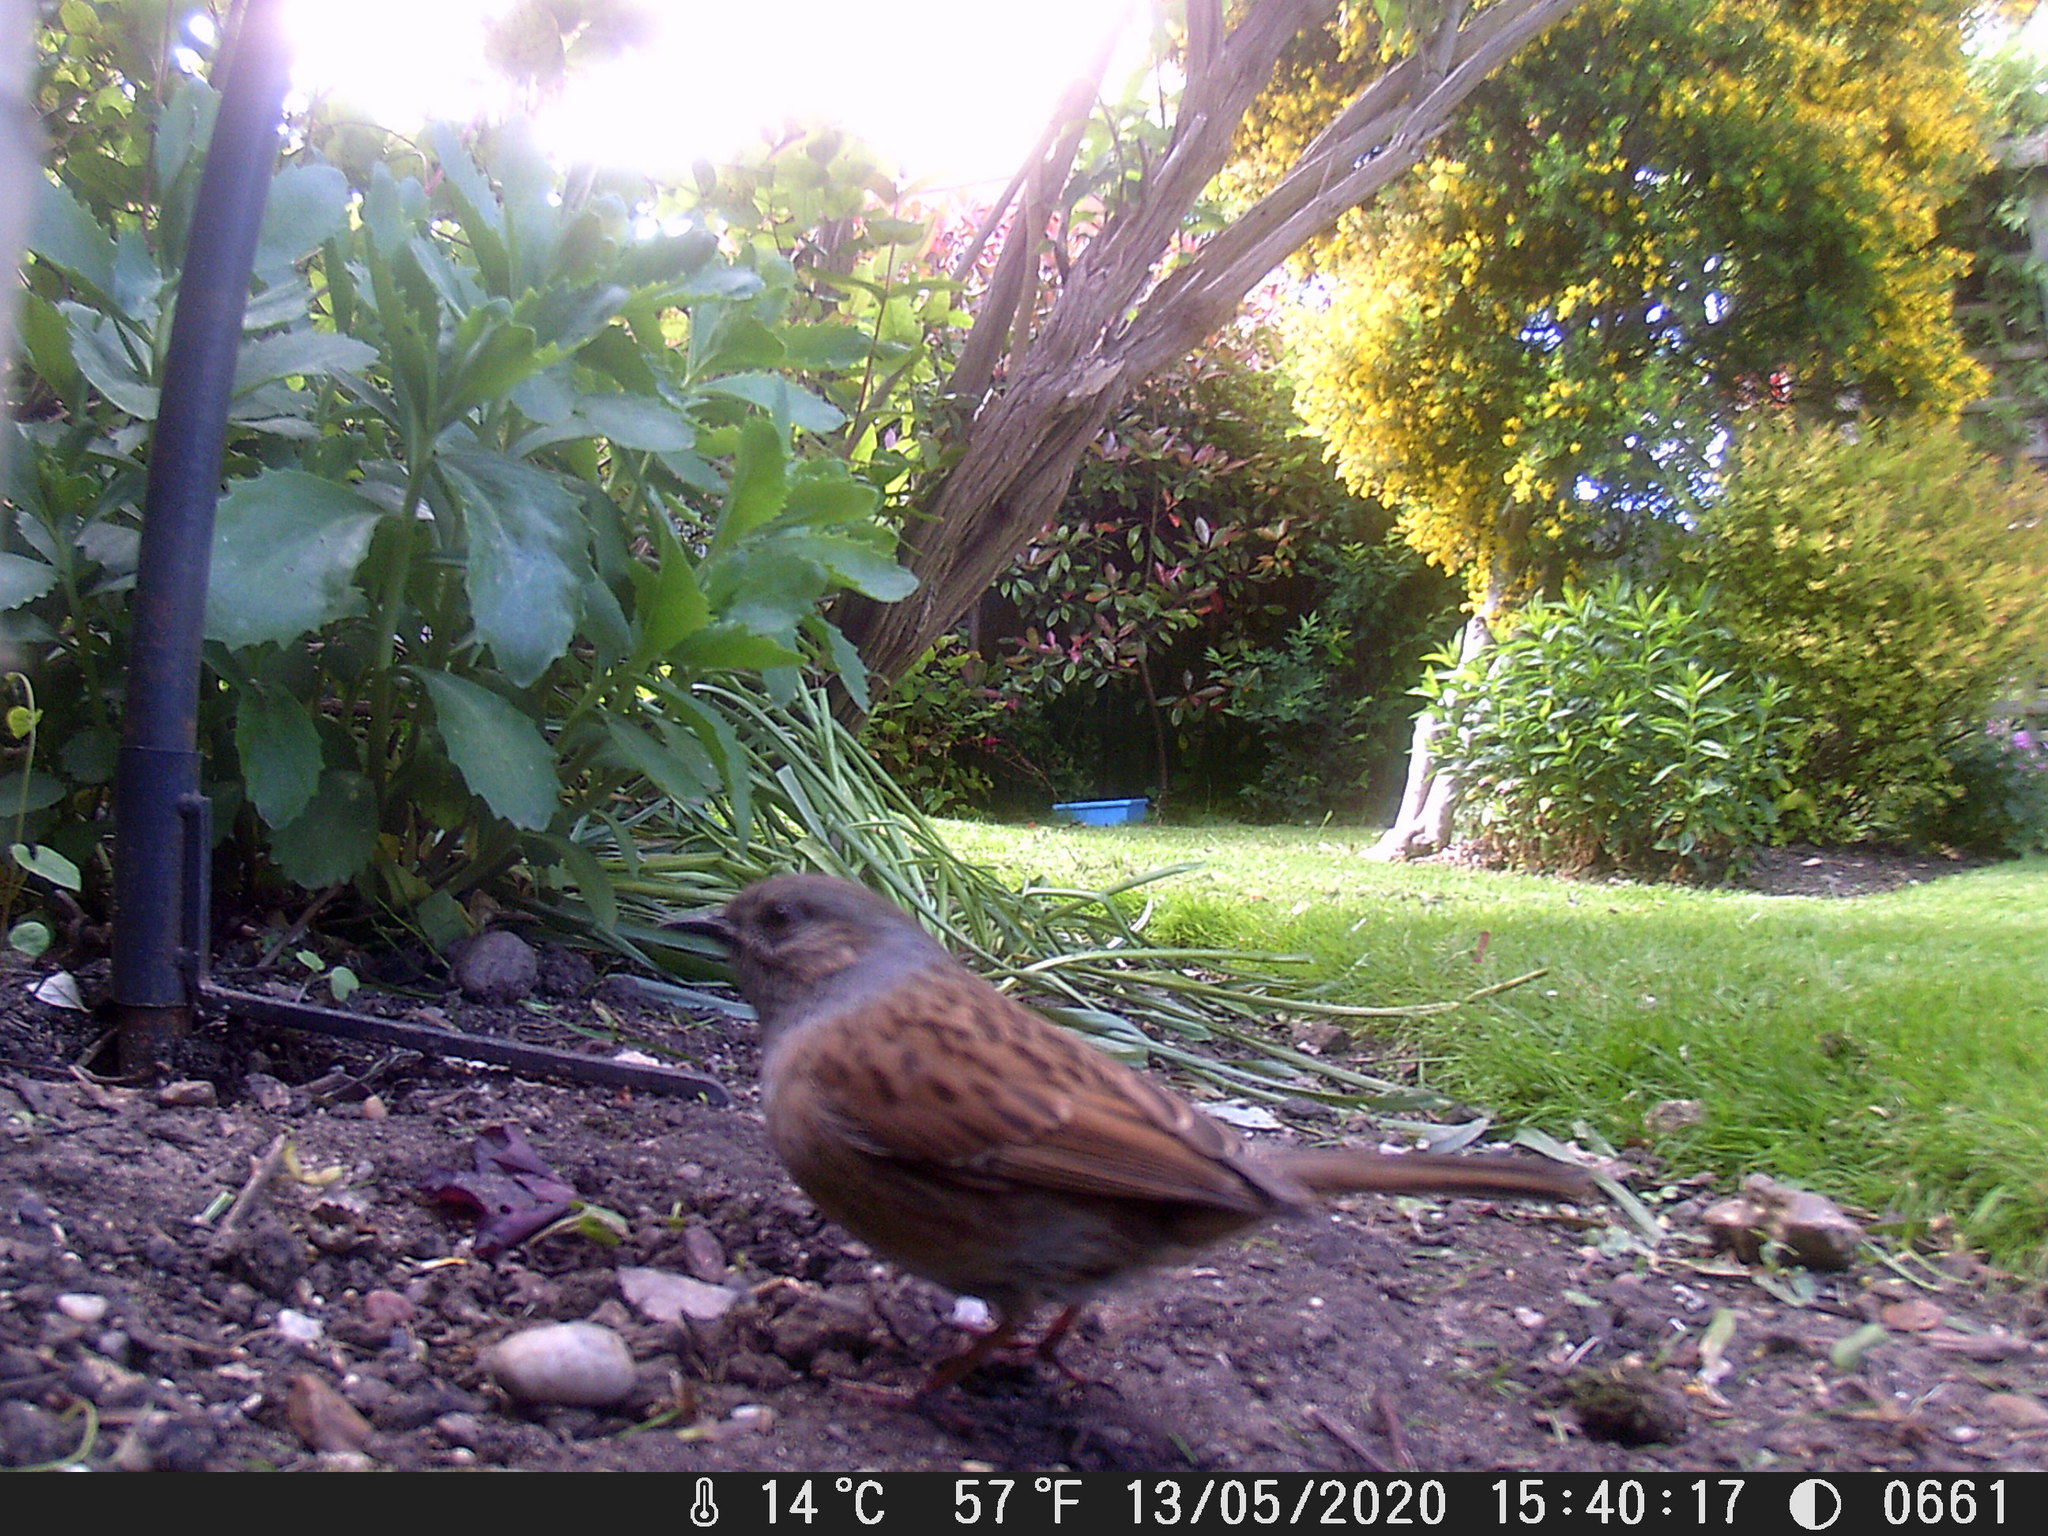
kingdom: Animalia
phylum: Chordata
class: Aves
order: Passeriformes
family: Prunellidae
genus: Prunella
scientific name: Prunella modularis
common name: Dunnock
